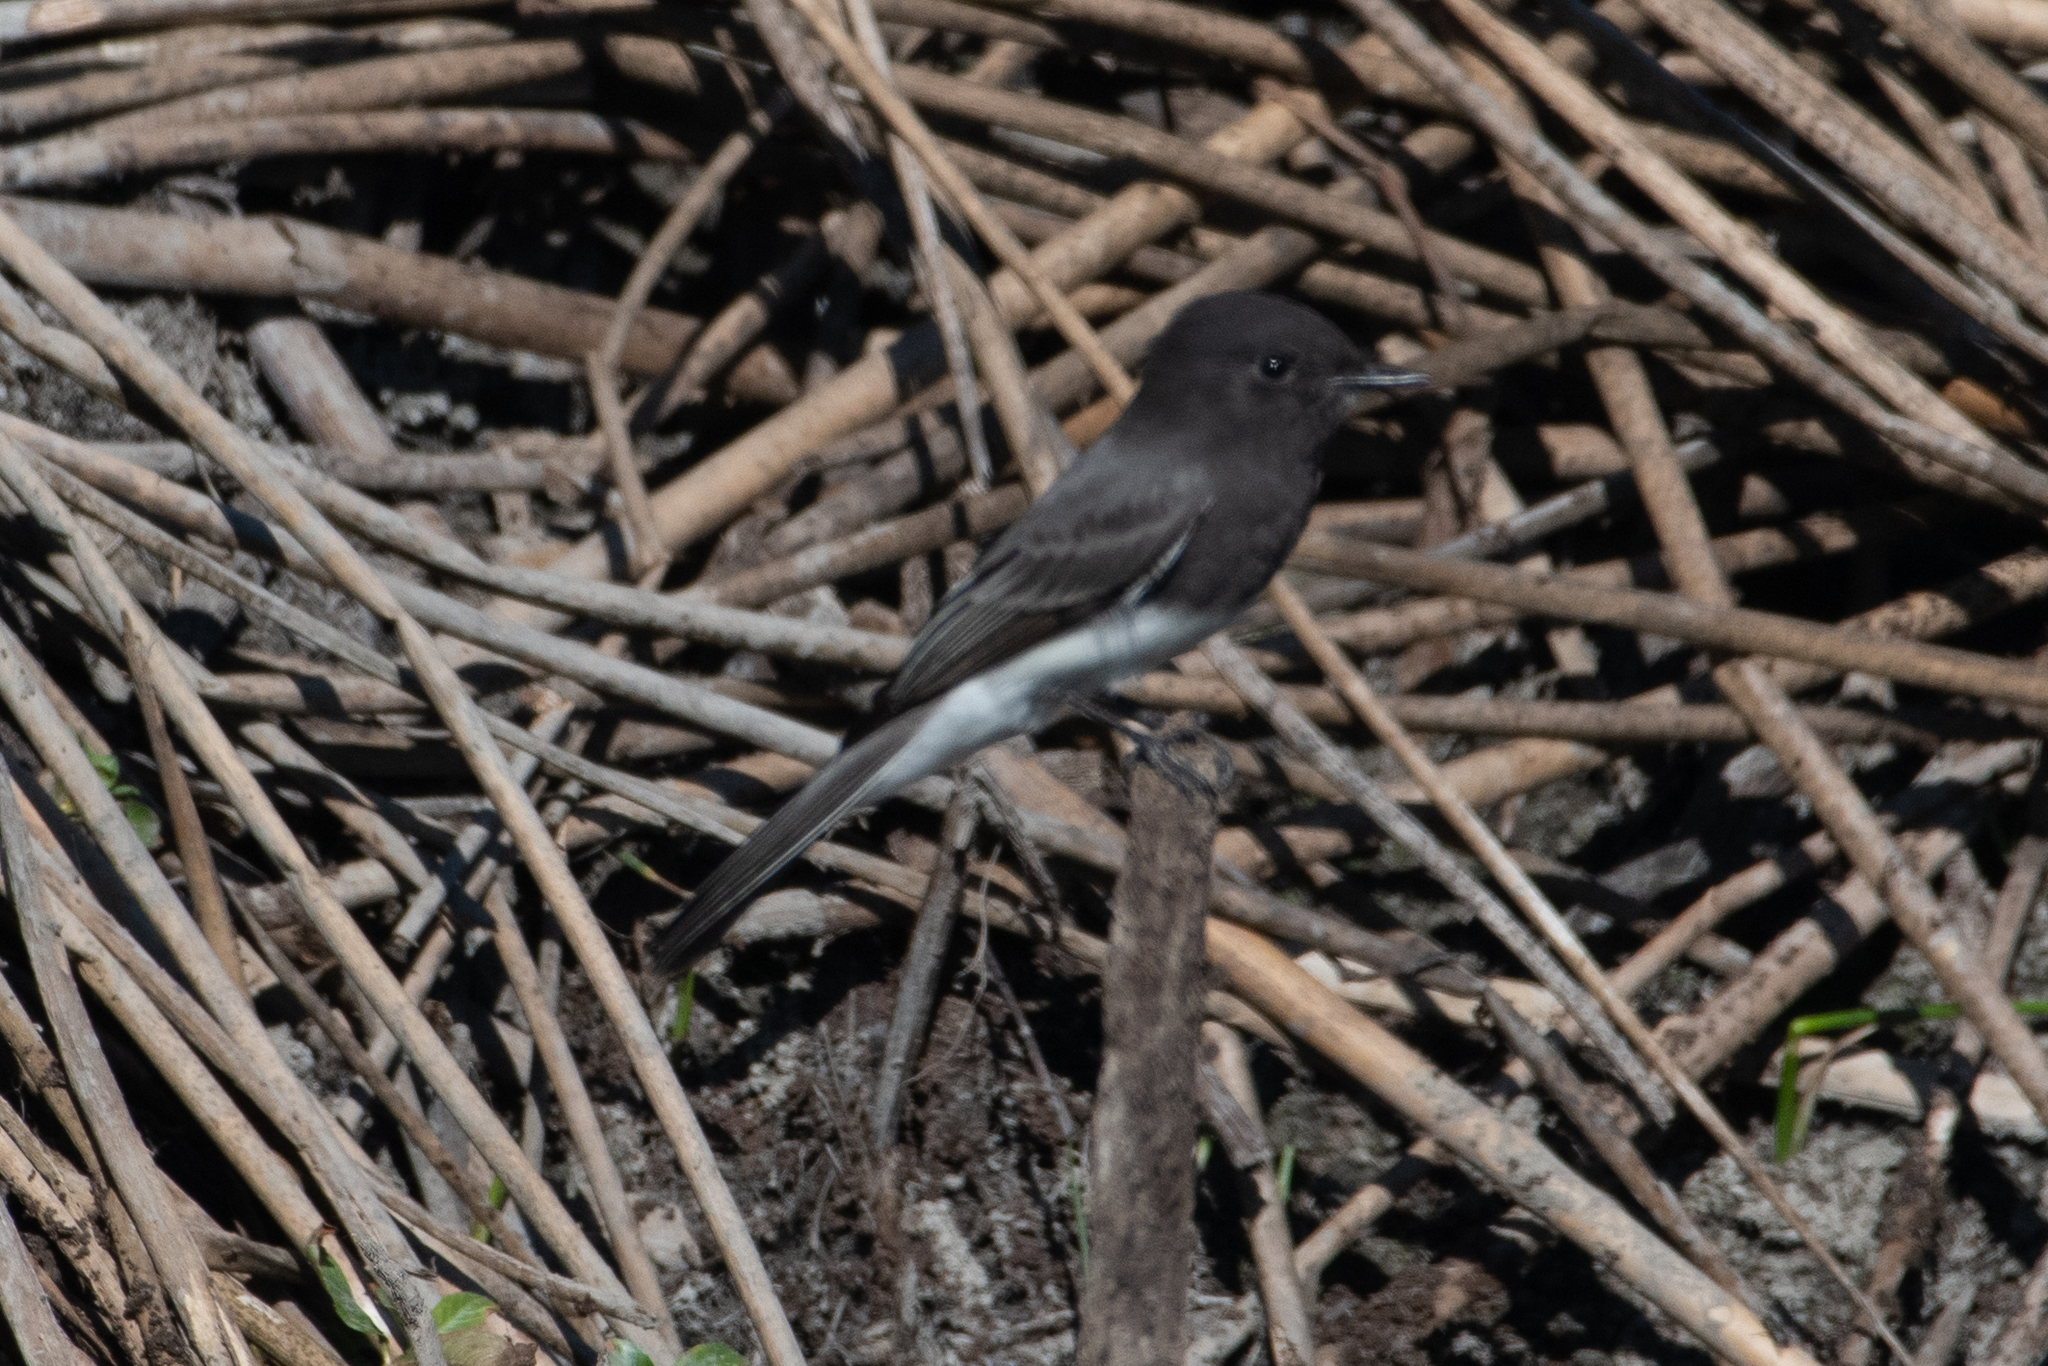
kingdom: Animalia
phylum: Chordata
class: Aves
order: Passeriformes
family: Tyrannidae
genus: Sayornis
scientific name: Sayornis nigricans
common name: Black phoebe
